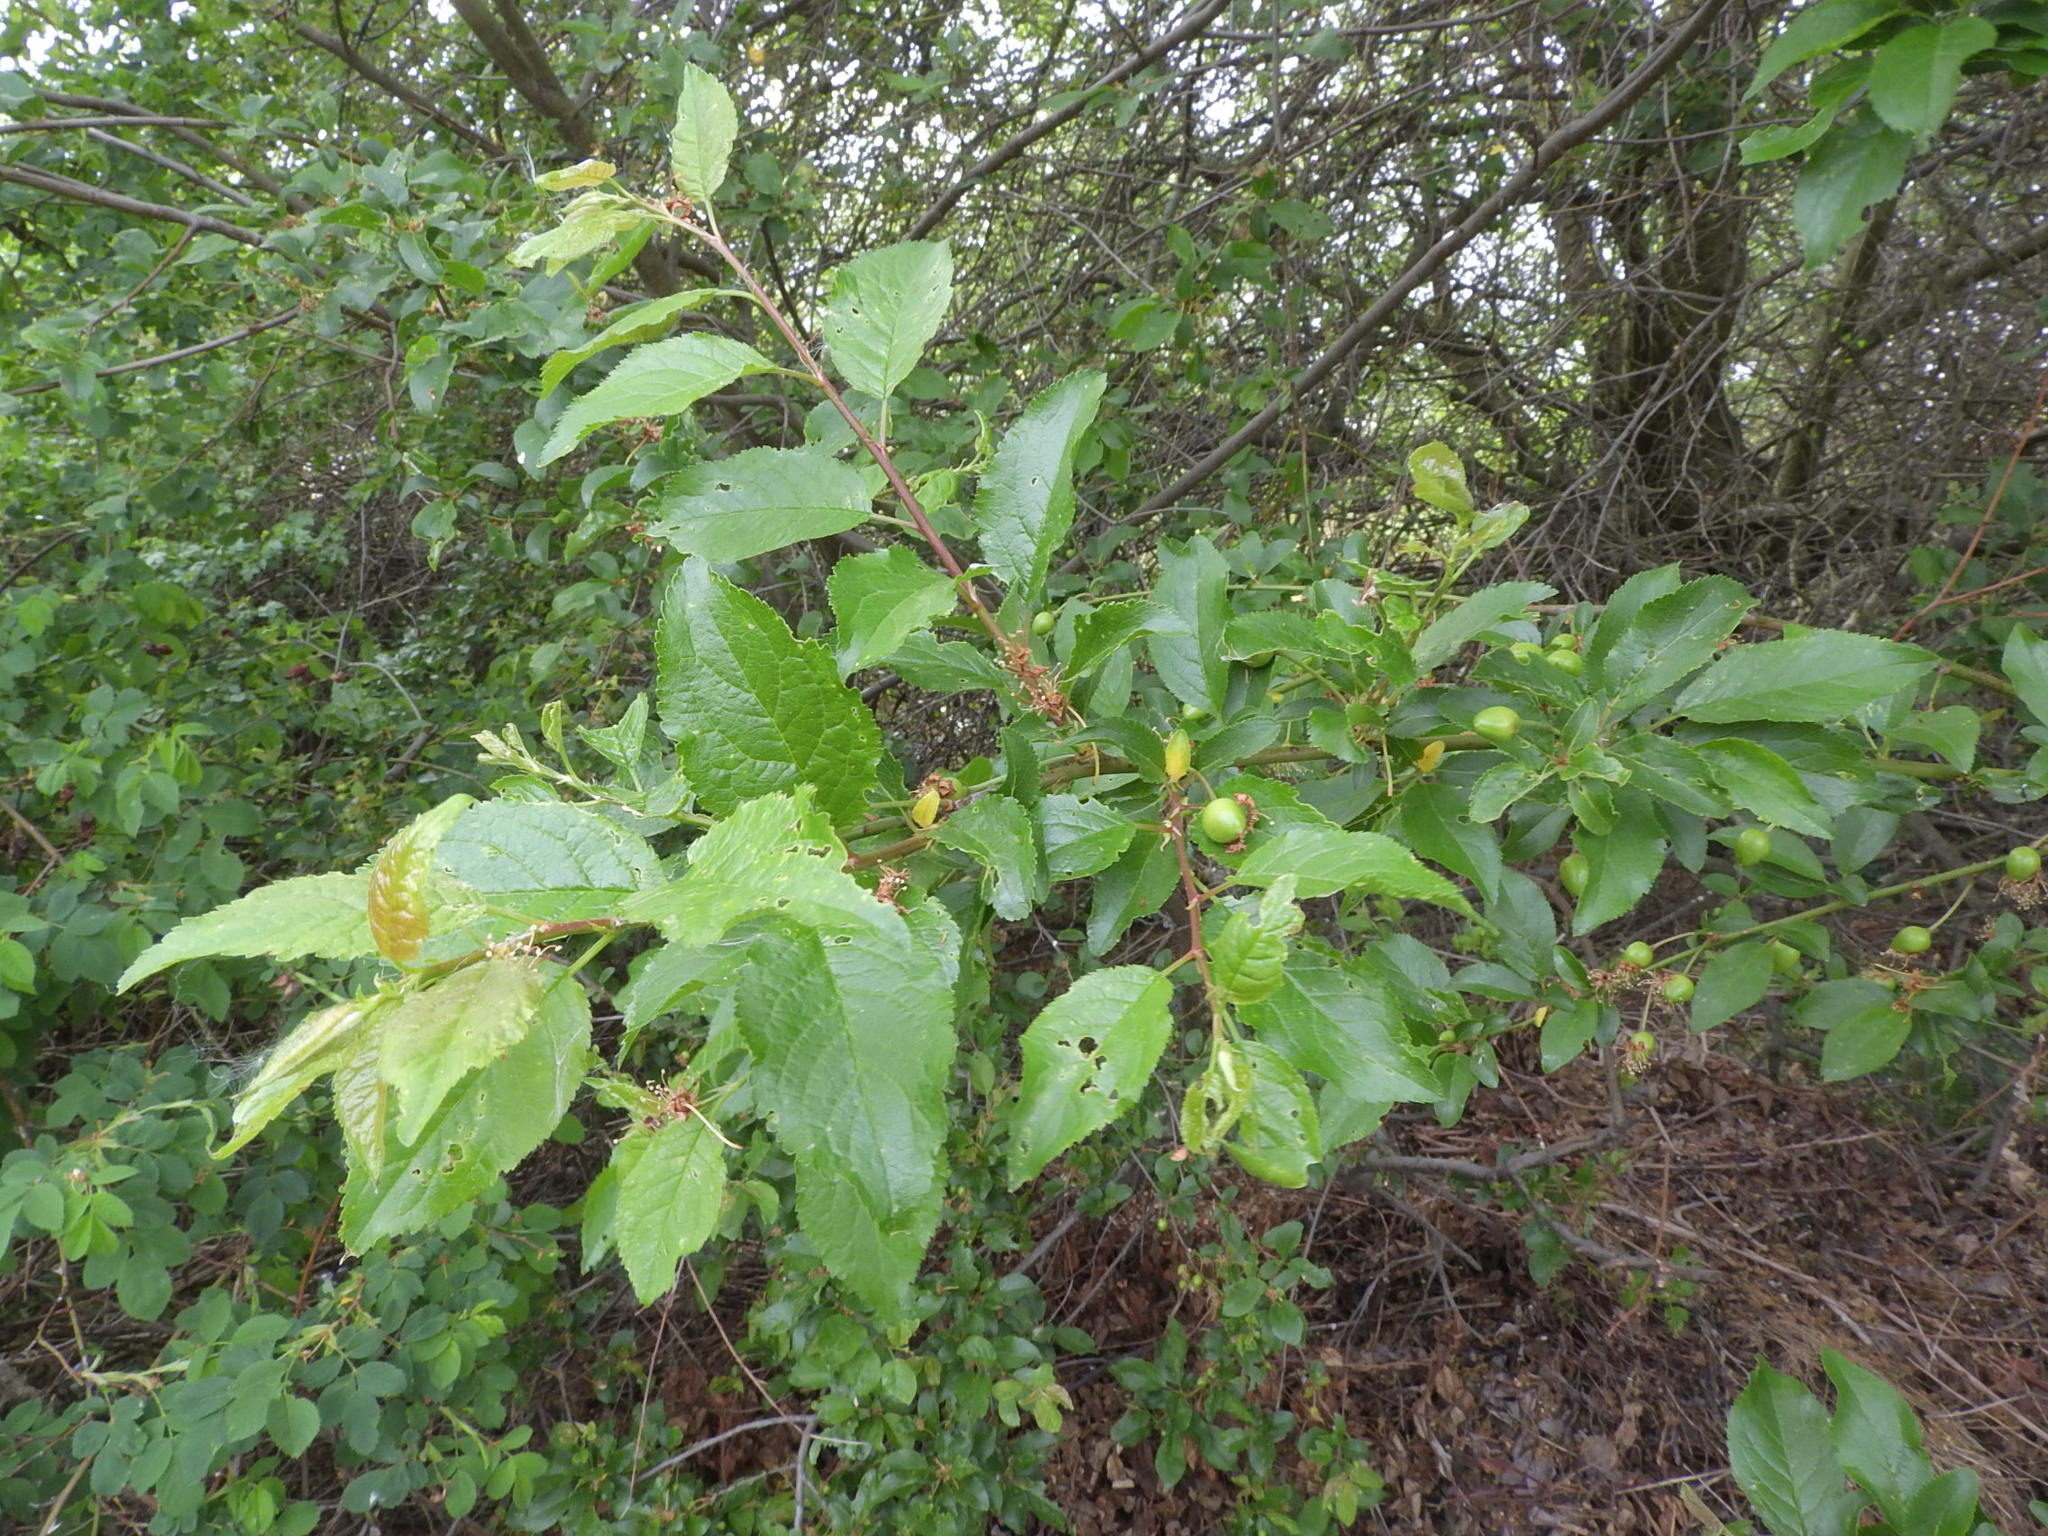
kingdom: Plantae
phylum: Tracheophyta
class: Magnoliopsida
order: Rosales
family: Rosaceae
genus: Prunus
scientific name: Prunus cerasifera
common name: Cherry plum
